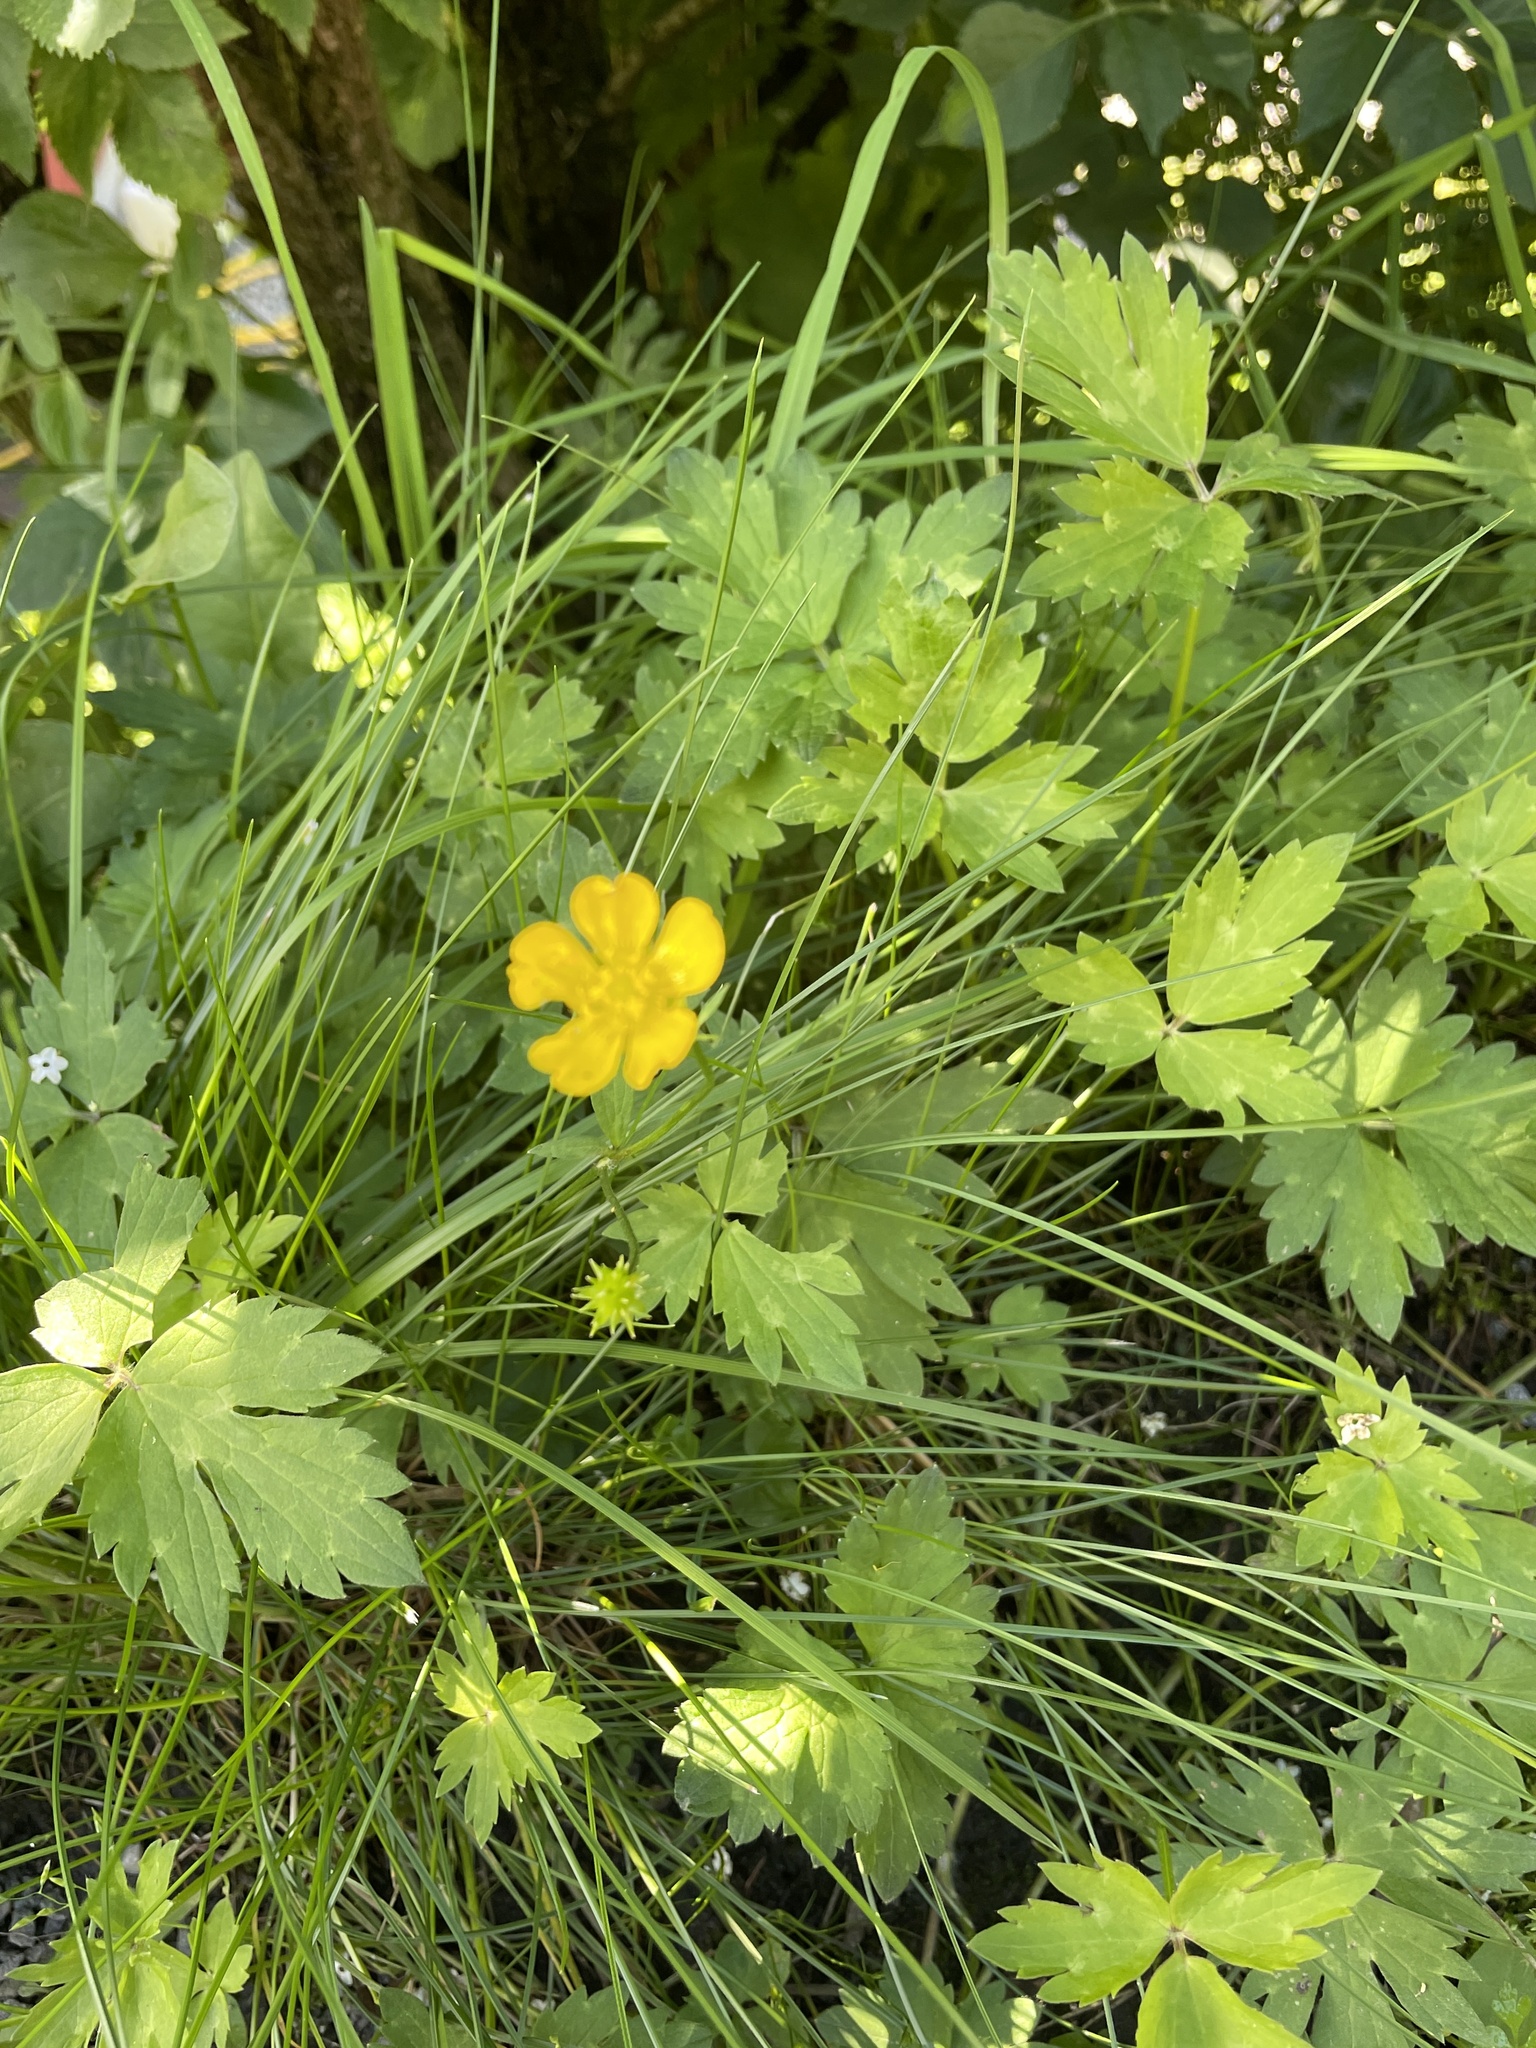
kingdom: Plantae
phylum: Tracheophyta
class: Magnoliopsida
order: Ranunculales
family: Ranunculaceae
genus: Ranunculus
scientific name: Ranunculus repens
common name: Creeping buttercup
